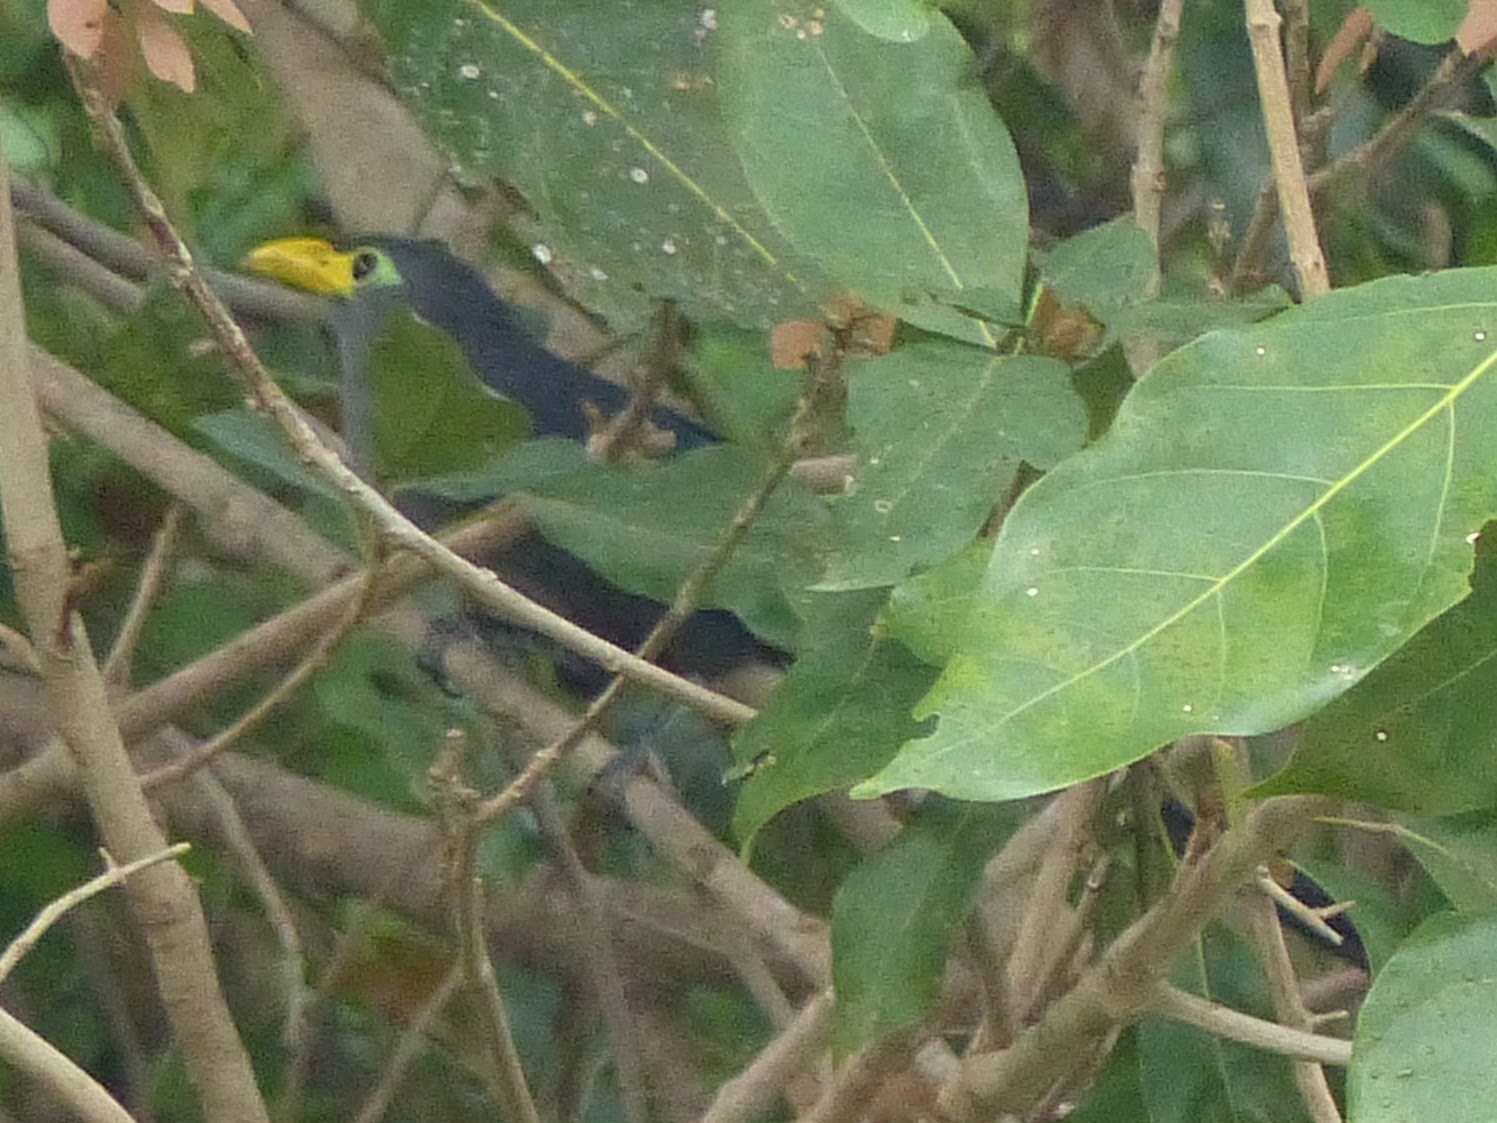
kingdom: Animalia
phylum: Chordata
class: Aves
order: Cuculiformes
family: Cuculidae
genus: Ceuthmochares
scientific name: Ceuthmochares aereus
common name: Blue malkoha
